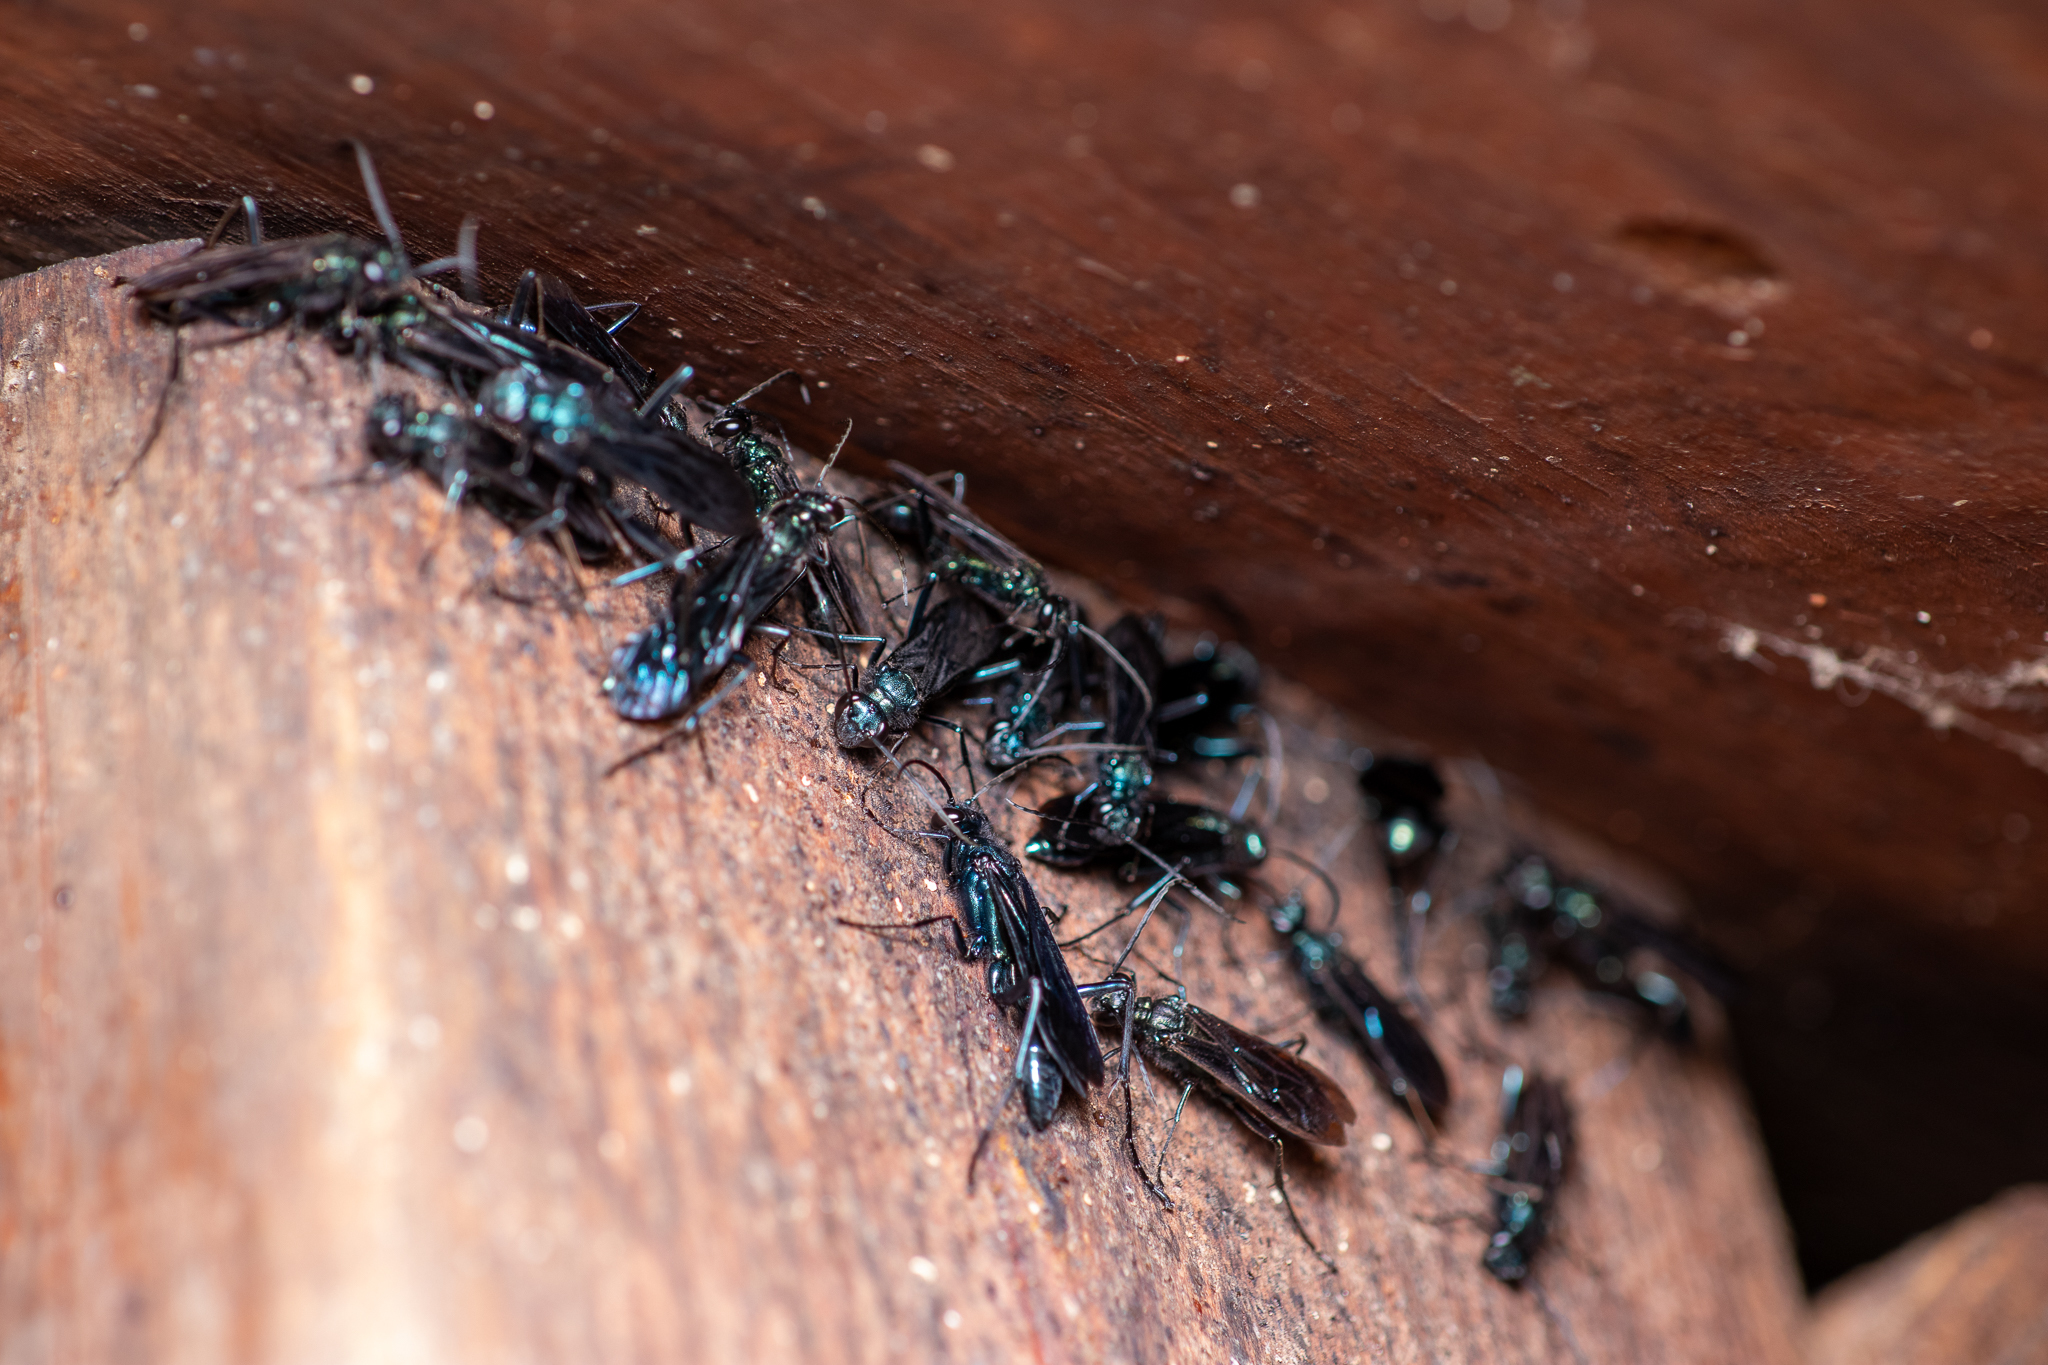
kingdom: Animalia
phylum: Arthropoda
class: Insecta
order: Hymenoptera
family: Sphecidae
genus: Chalybion
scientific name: Chalybion californicum
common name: Mud dauber
